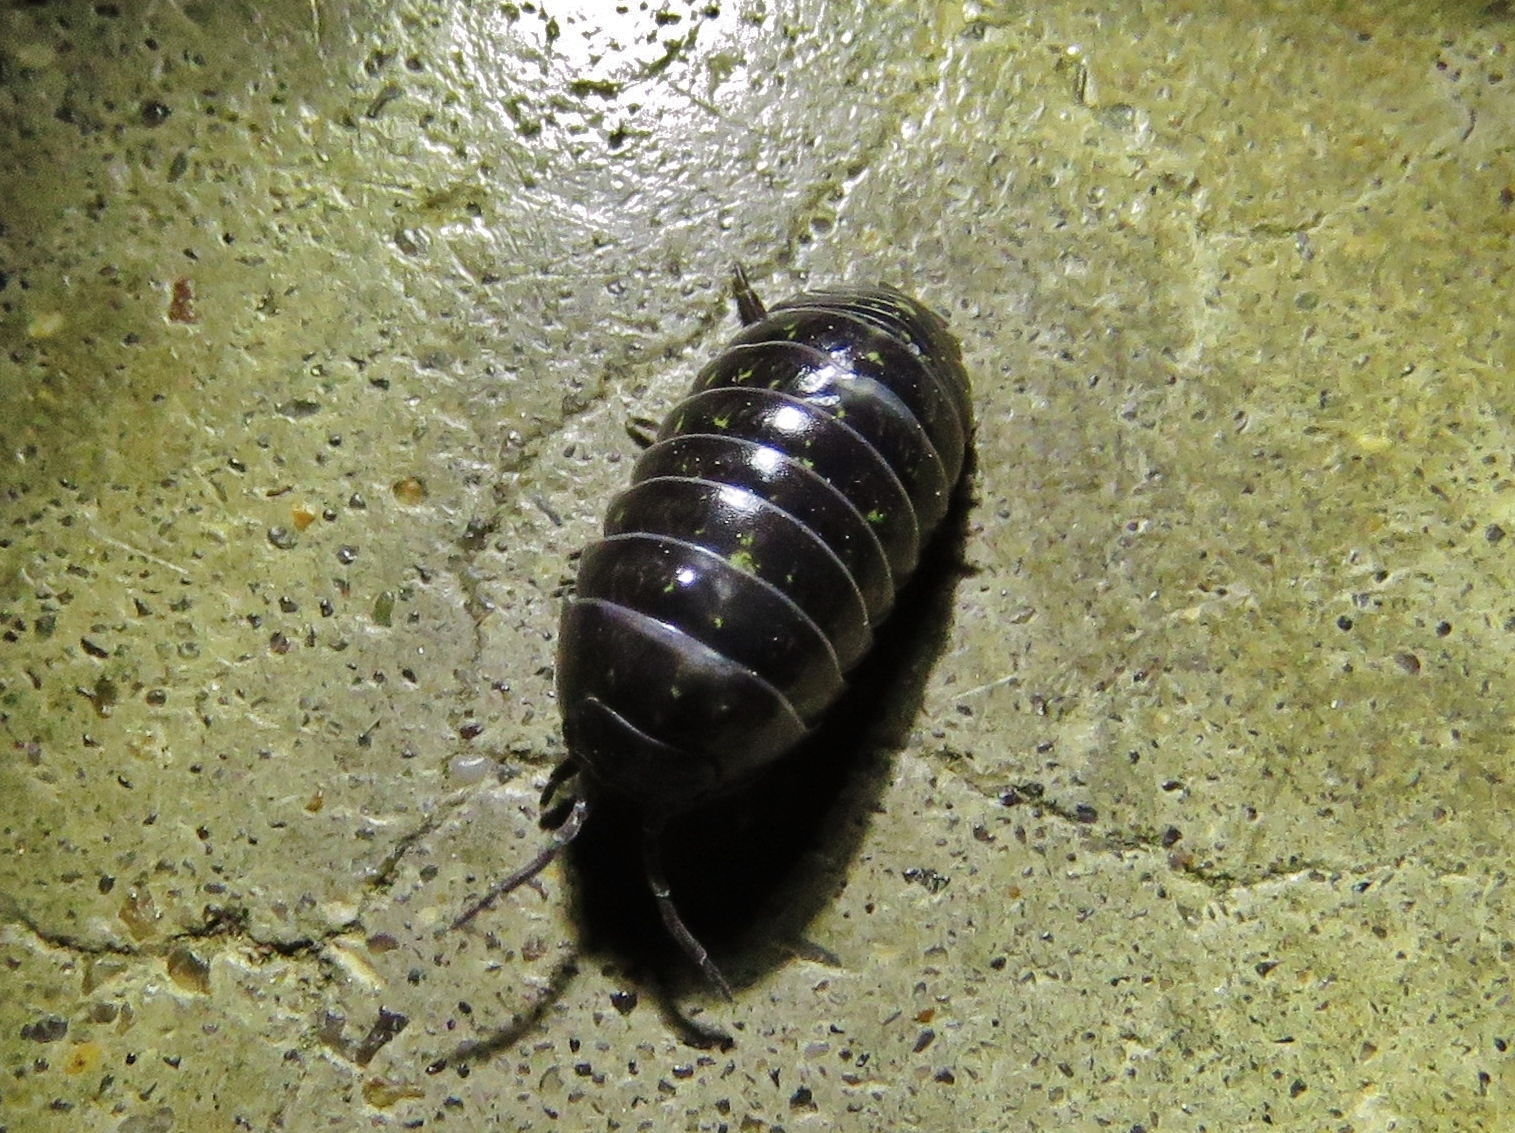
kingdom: Animalia
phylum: Arthropoda
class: Malacostraca
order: Isopoda
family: Armadillidiidae
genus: Armadillidium
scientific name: Armadillidium vulgare
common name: Common pill woodlouse
